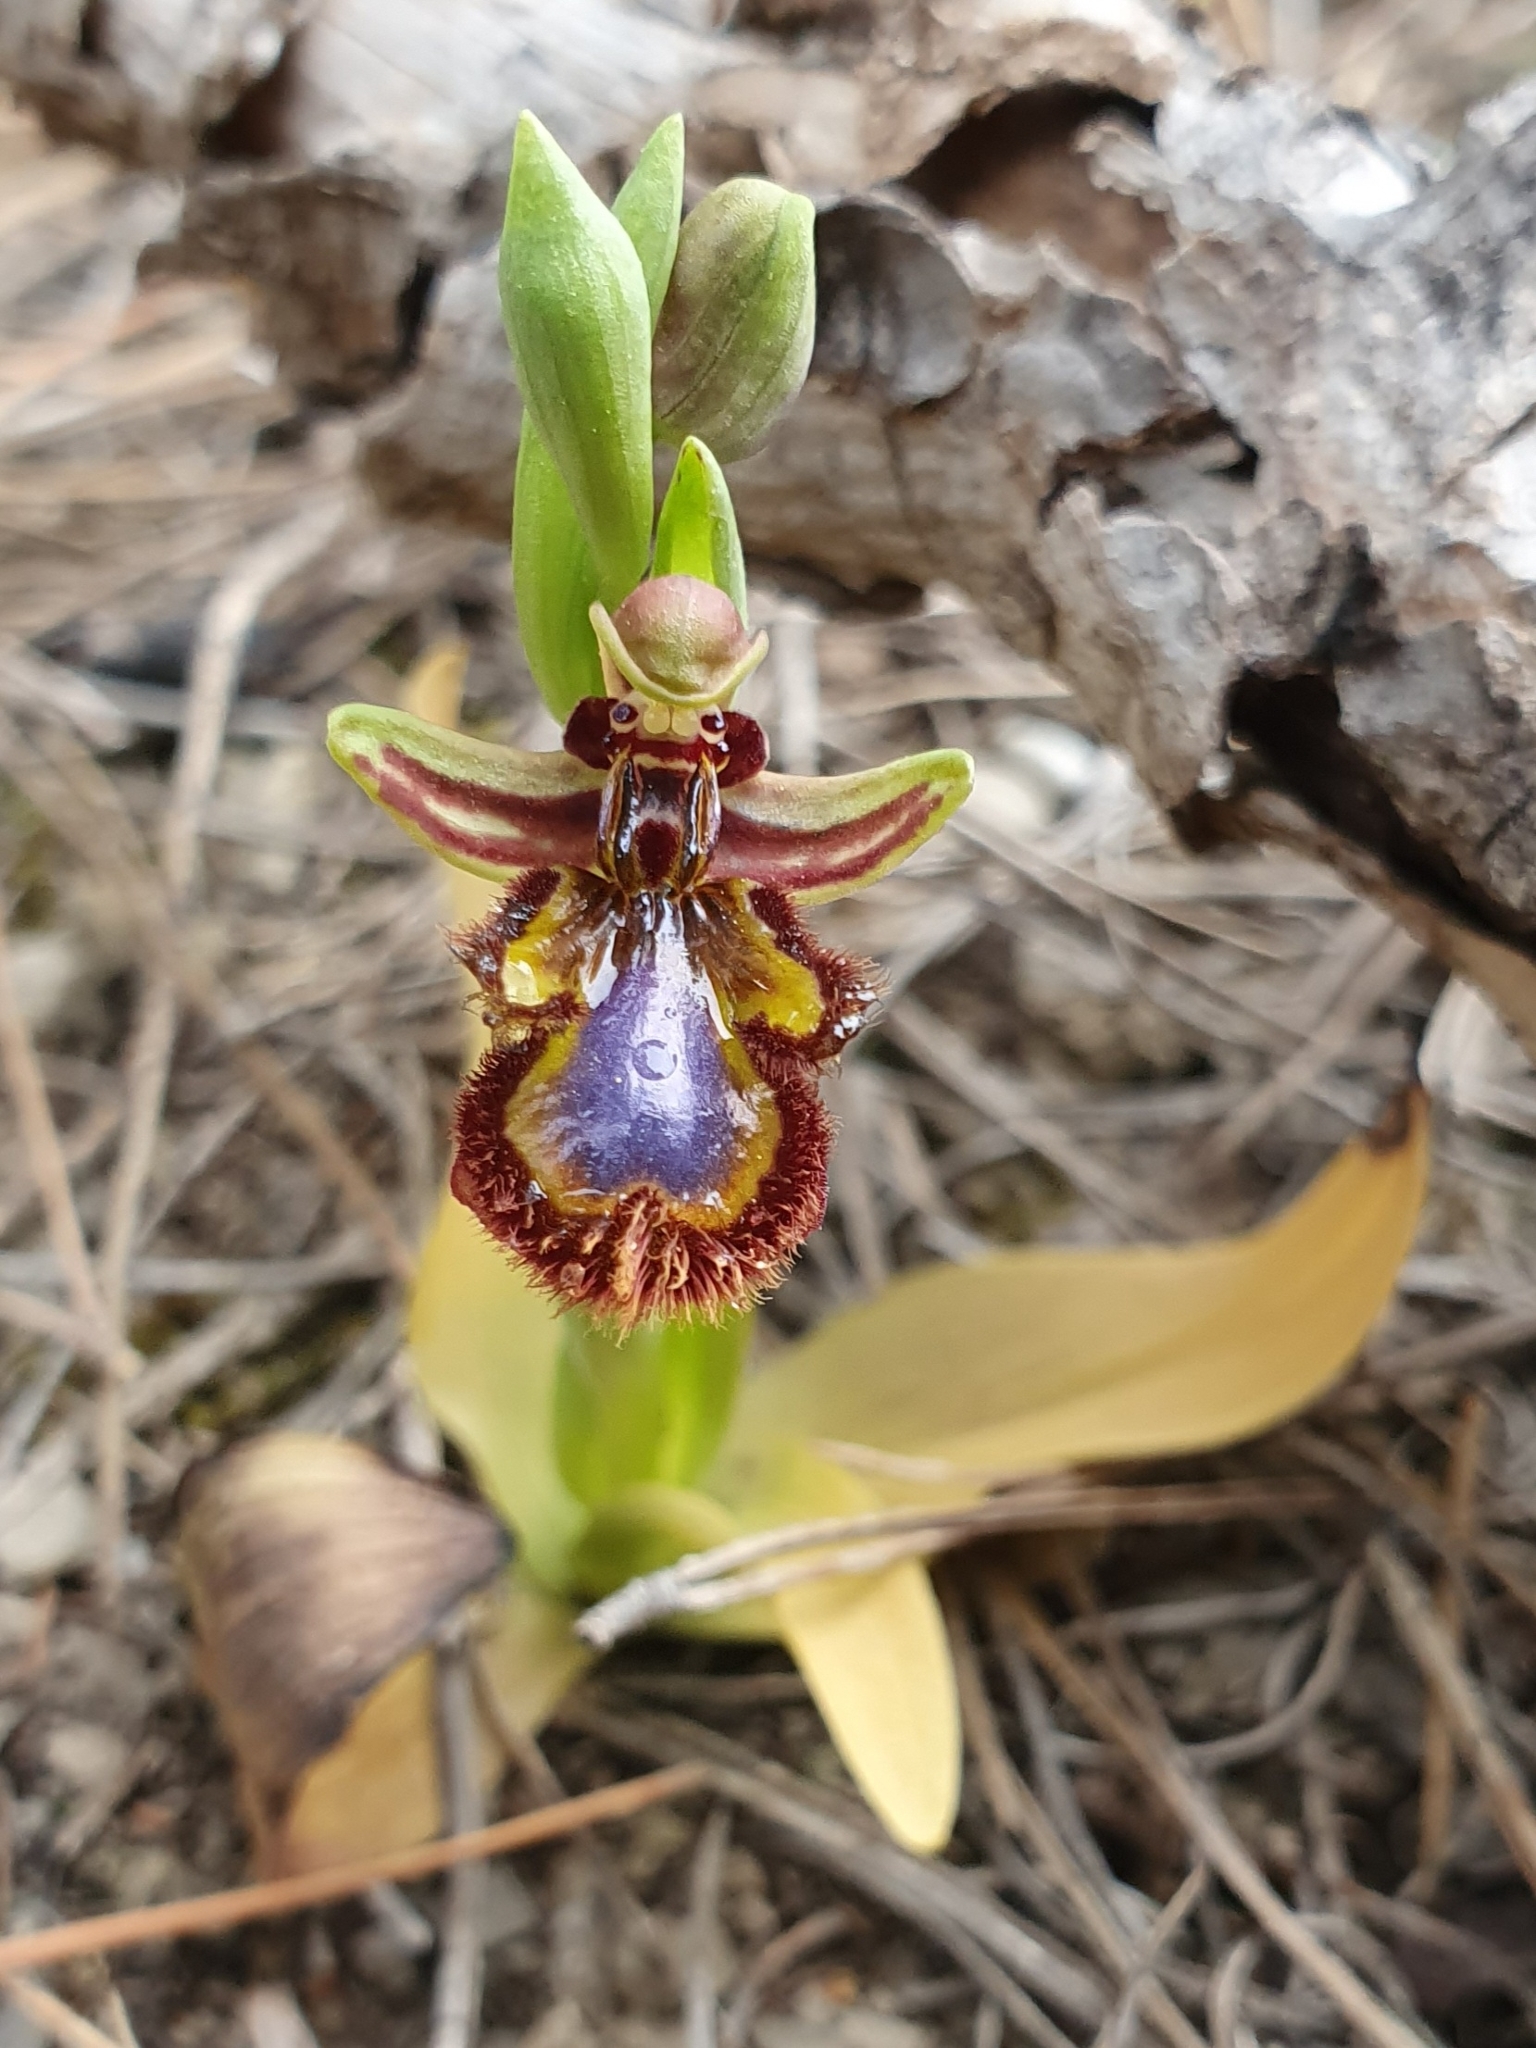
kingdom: Plantae
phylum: Tracheophyta
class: Liliopsida
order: Asparagales
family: Orchidaceae
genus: Ophrys
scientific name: Ophrys speculum
